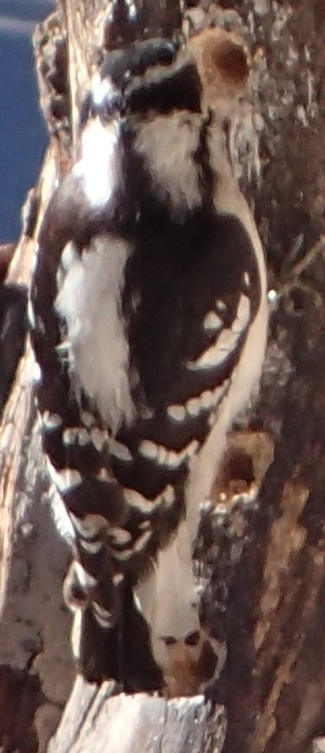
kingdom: Animalia
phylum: Chordata
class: Aves
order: Piciformes
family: Picidae
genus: Dryobates
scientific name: Dryobates pubescens
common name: Downy woodpecker
